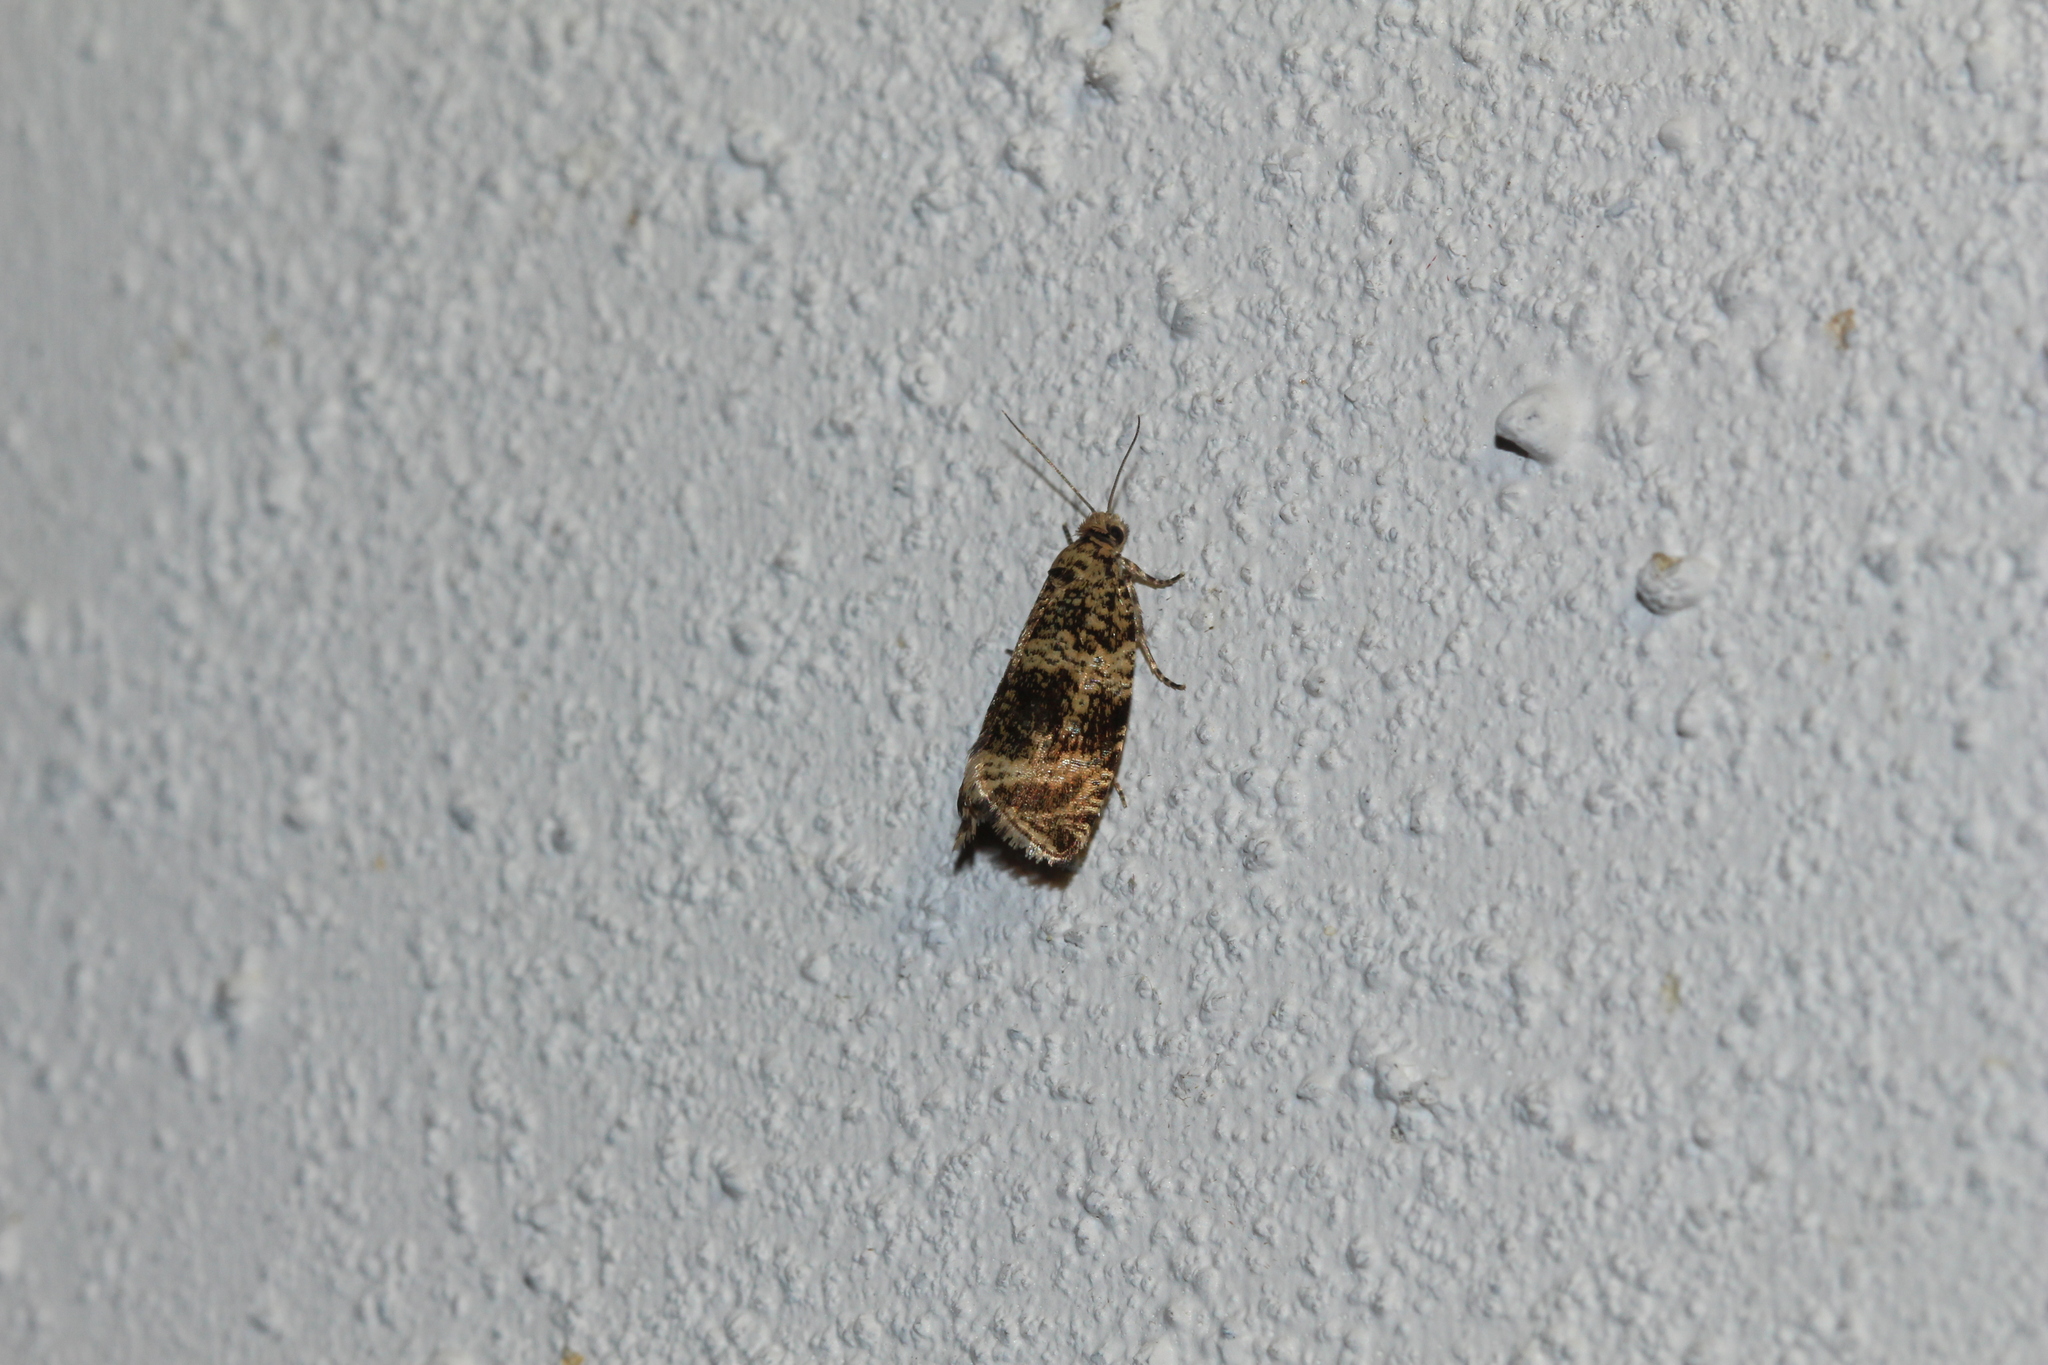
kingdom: Animalia
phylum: Arthropoda
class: Insecta
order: Lepidoptera
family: Tortricidae
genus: Syricoris
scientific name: Syricoris lacunana
